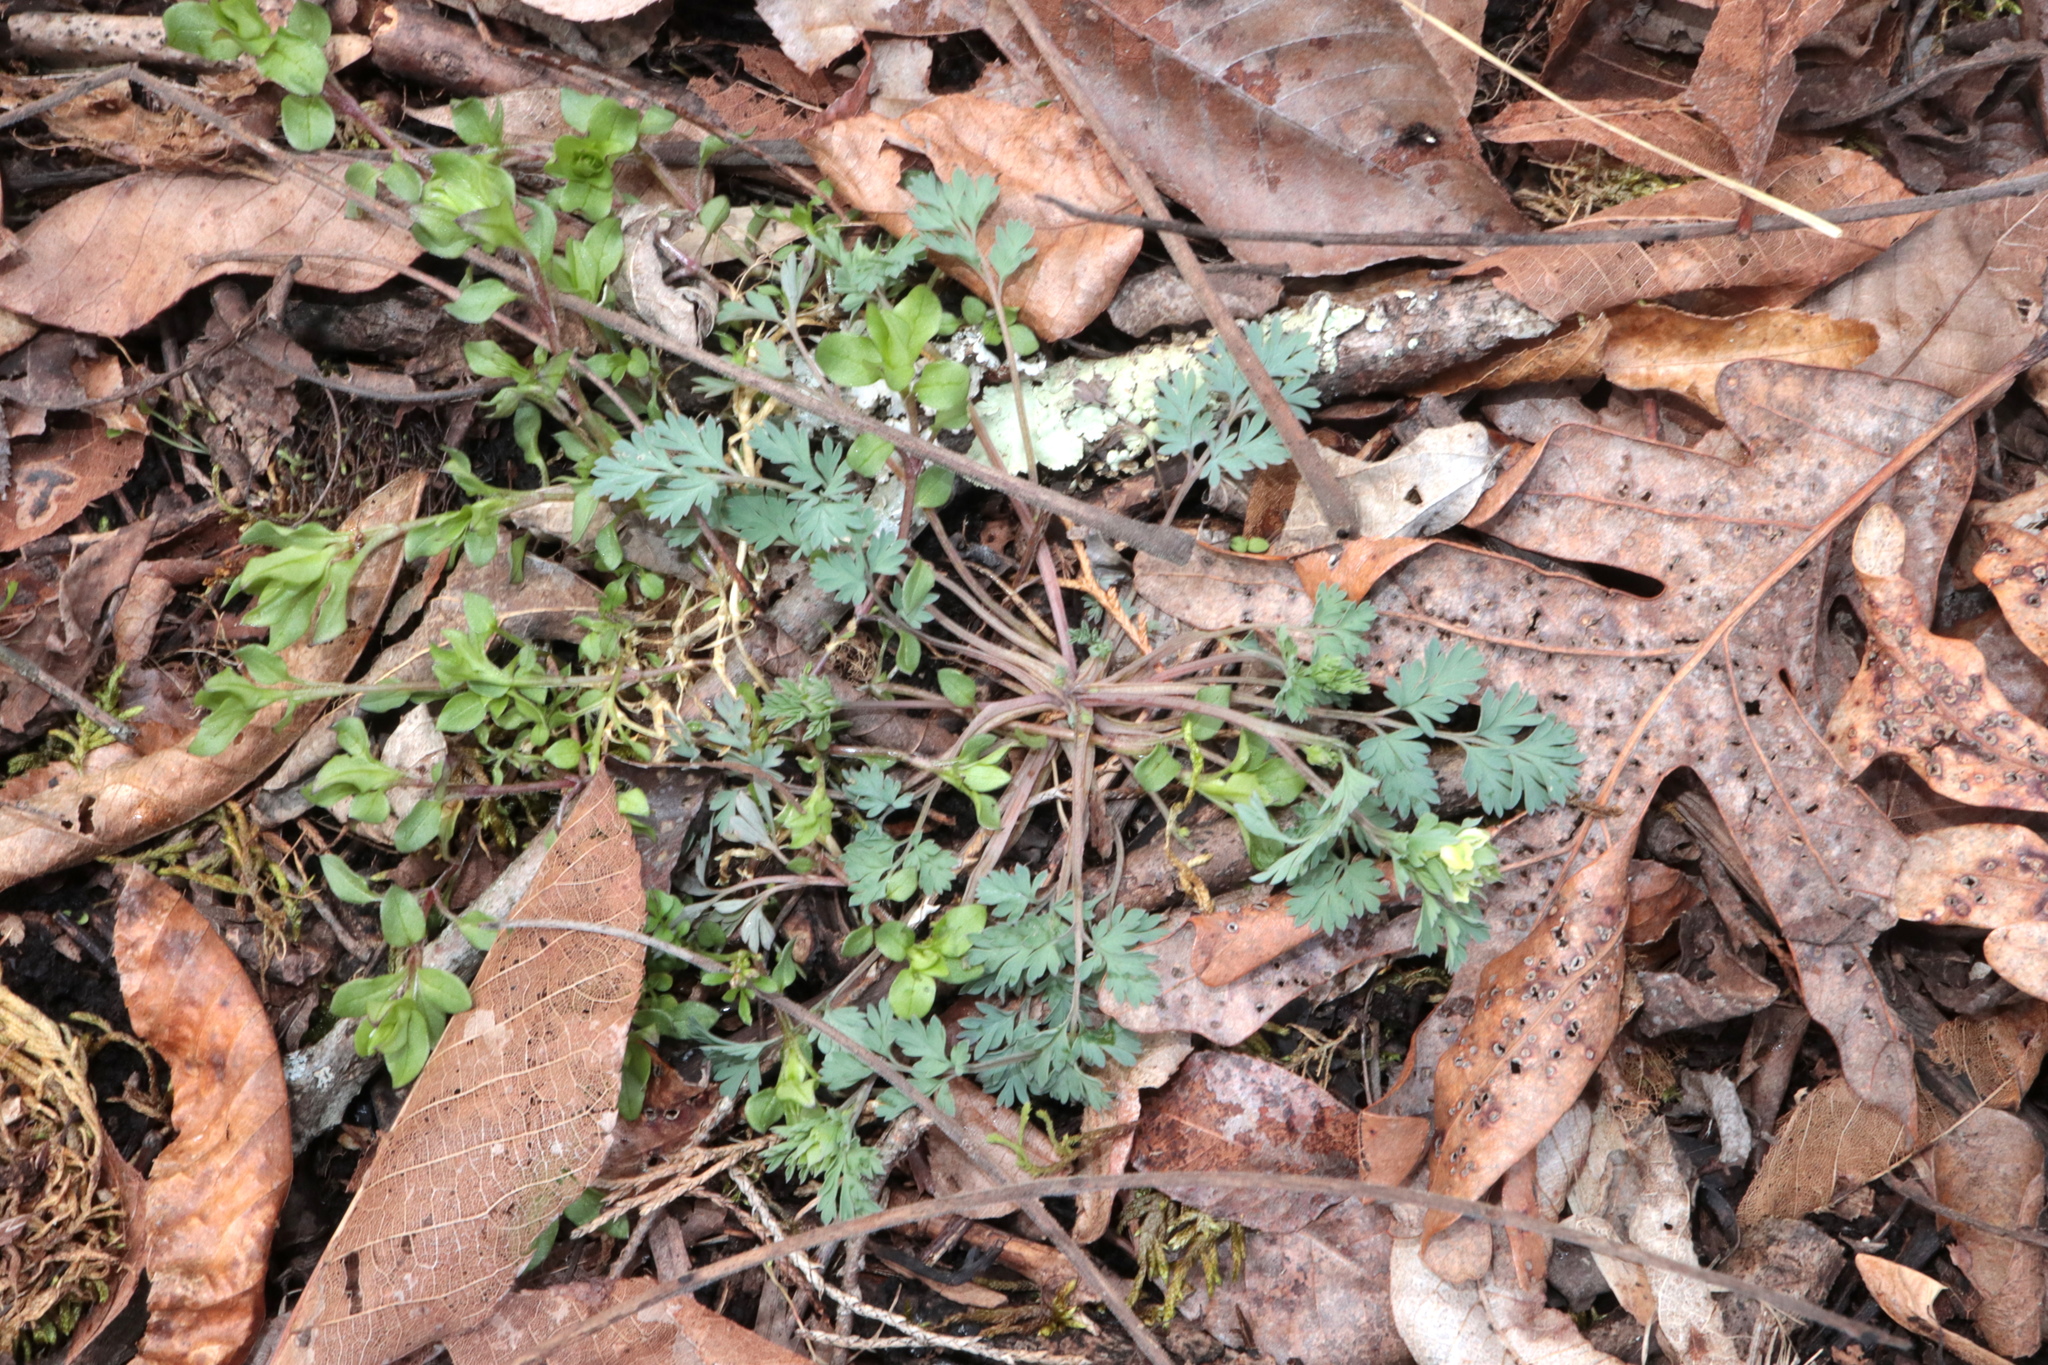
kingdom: Plantae
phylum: Tracheophyta
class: Magnoliopsida
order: Ranunculales
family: Papaveraceae
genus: Corydalis
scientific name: Corydalis flavula
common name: Yellow corydalis
